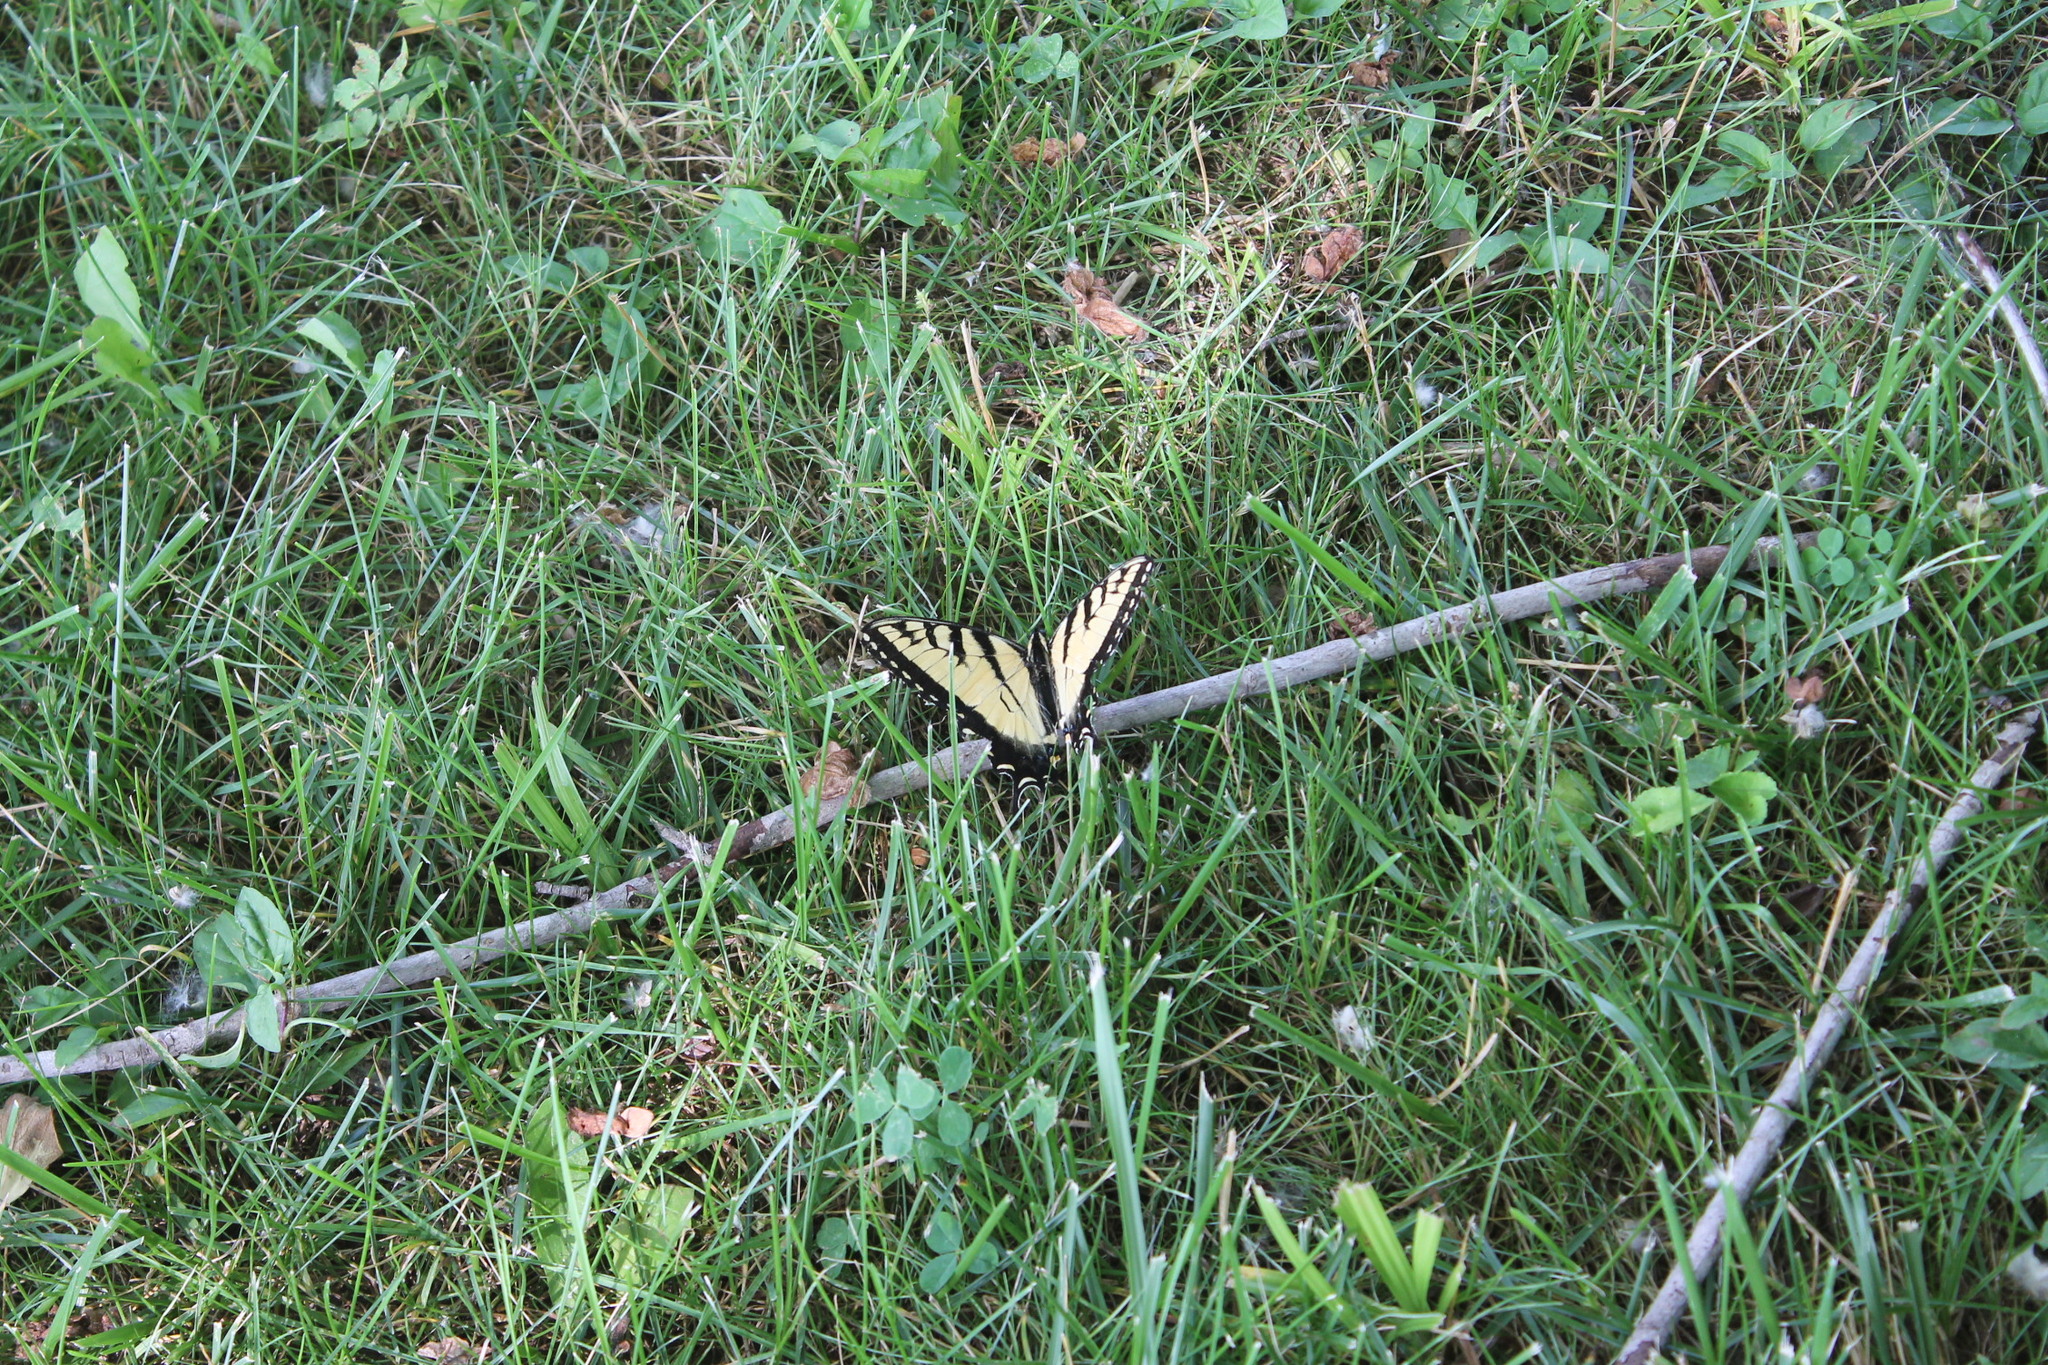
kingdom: Animalia
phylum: Arthropoda
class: Insecta
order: Lepidoptera
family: Papilionidae
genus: Papilio
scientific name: Papilio glaucus
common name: Tiger swallowtail
